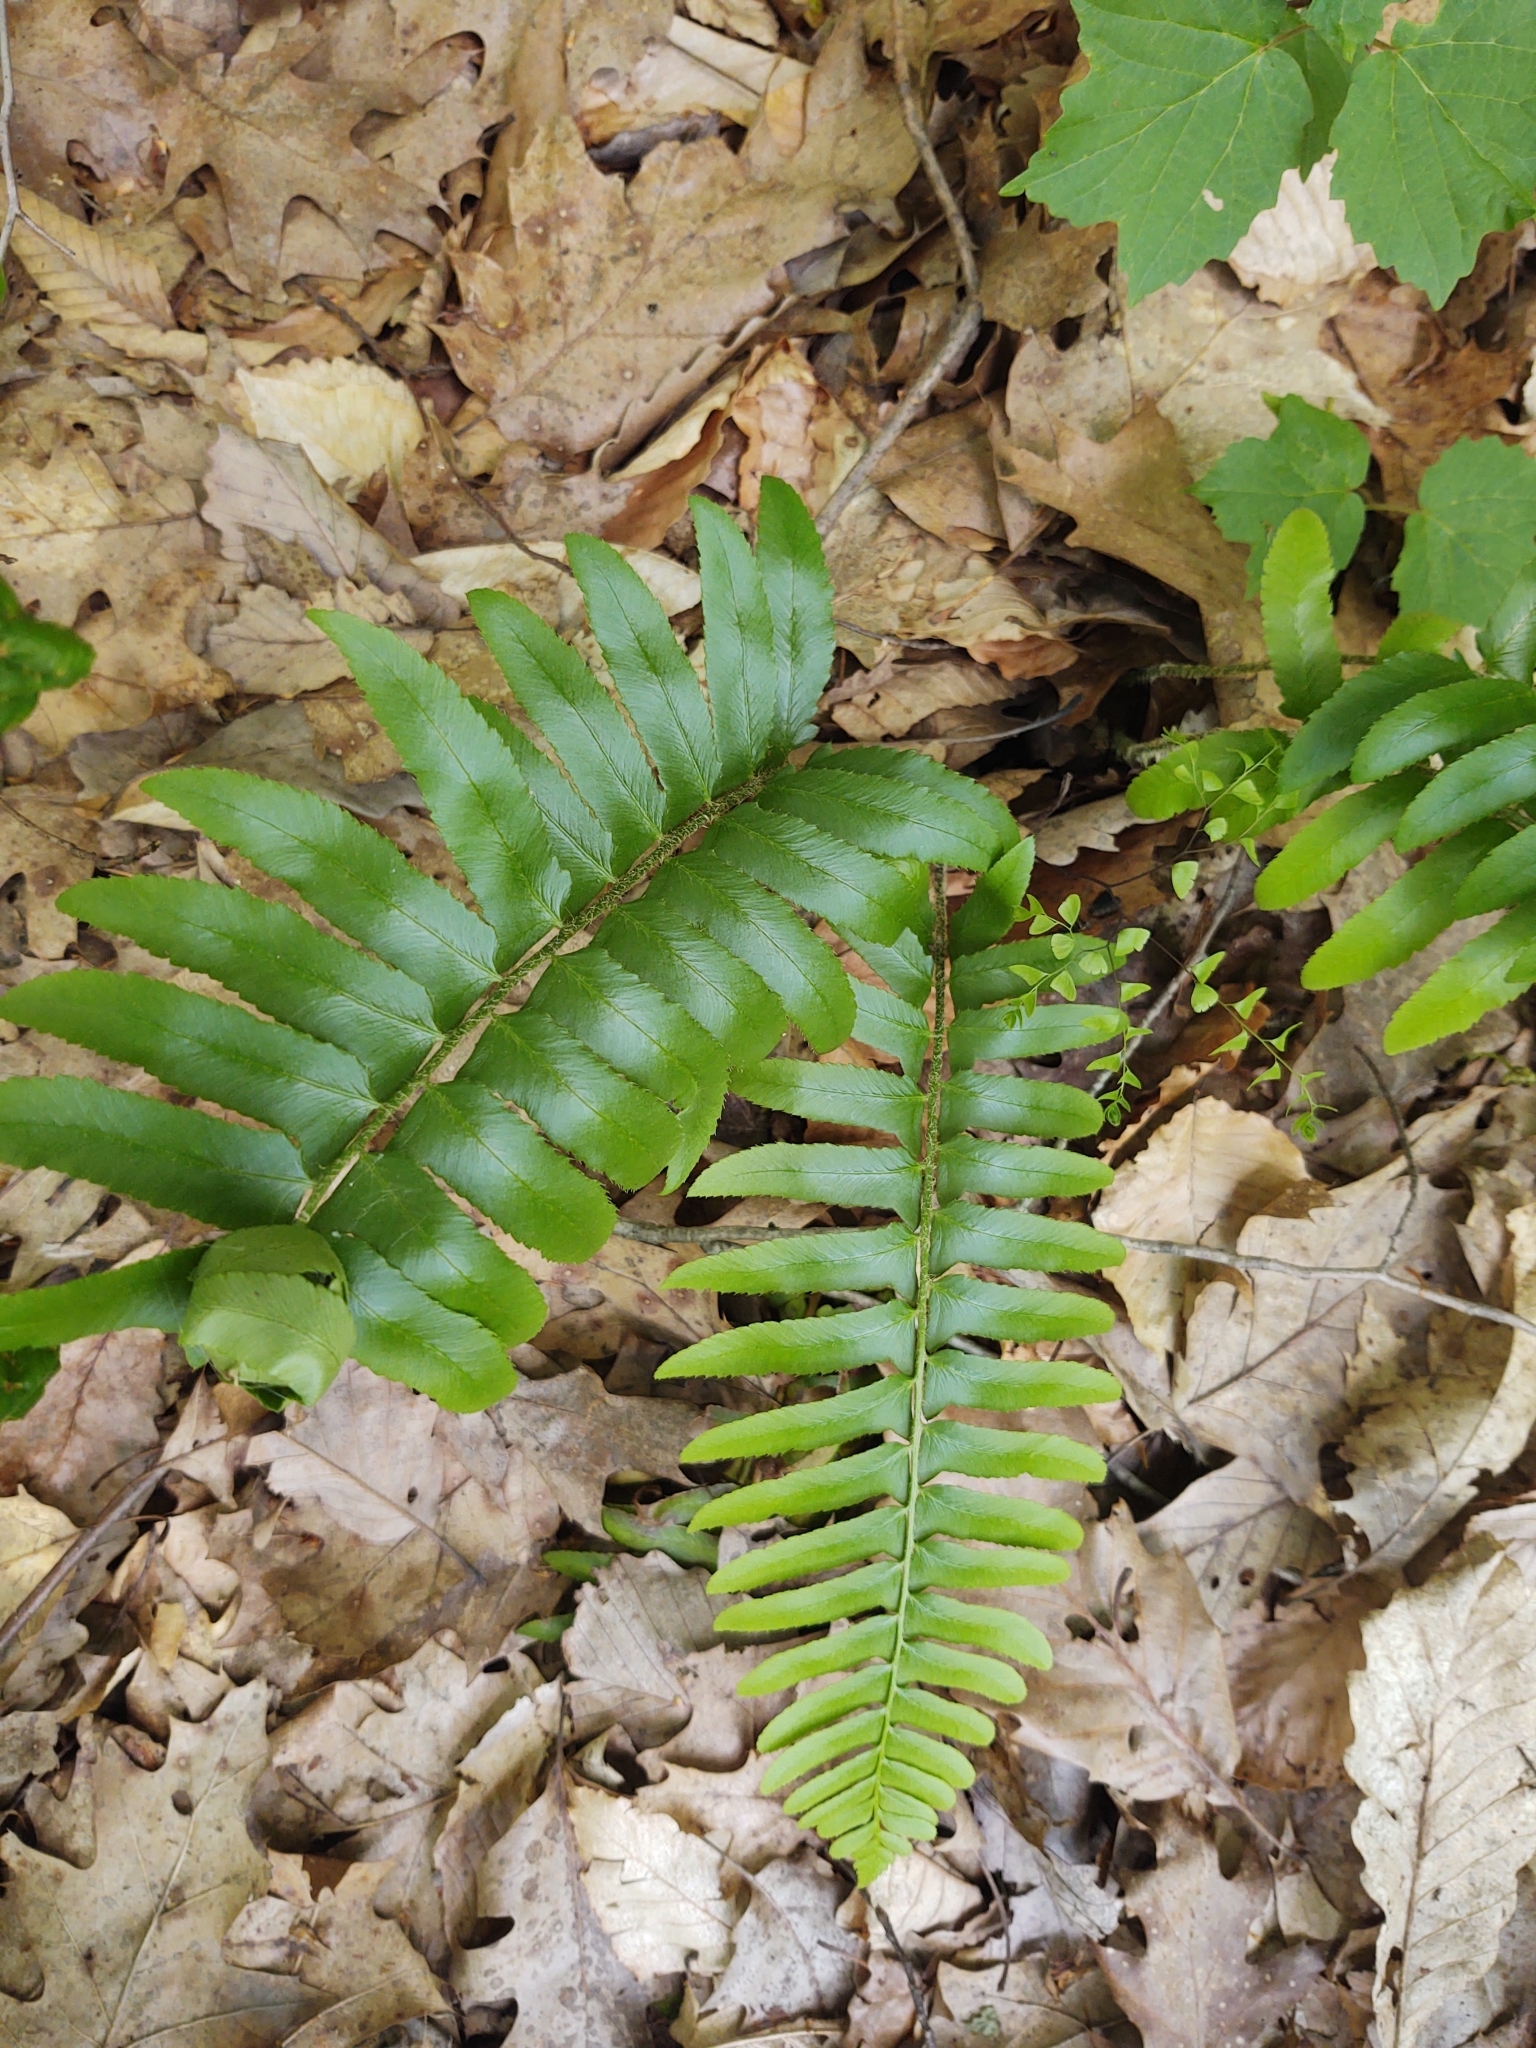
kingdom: Plantae
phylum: Tracheophyta
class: Polypodiopsida
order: Polypodiales
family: Dryopteridaceae
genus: Polystichum
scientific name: Polystichum acrostichoides
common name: Christmas fern
